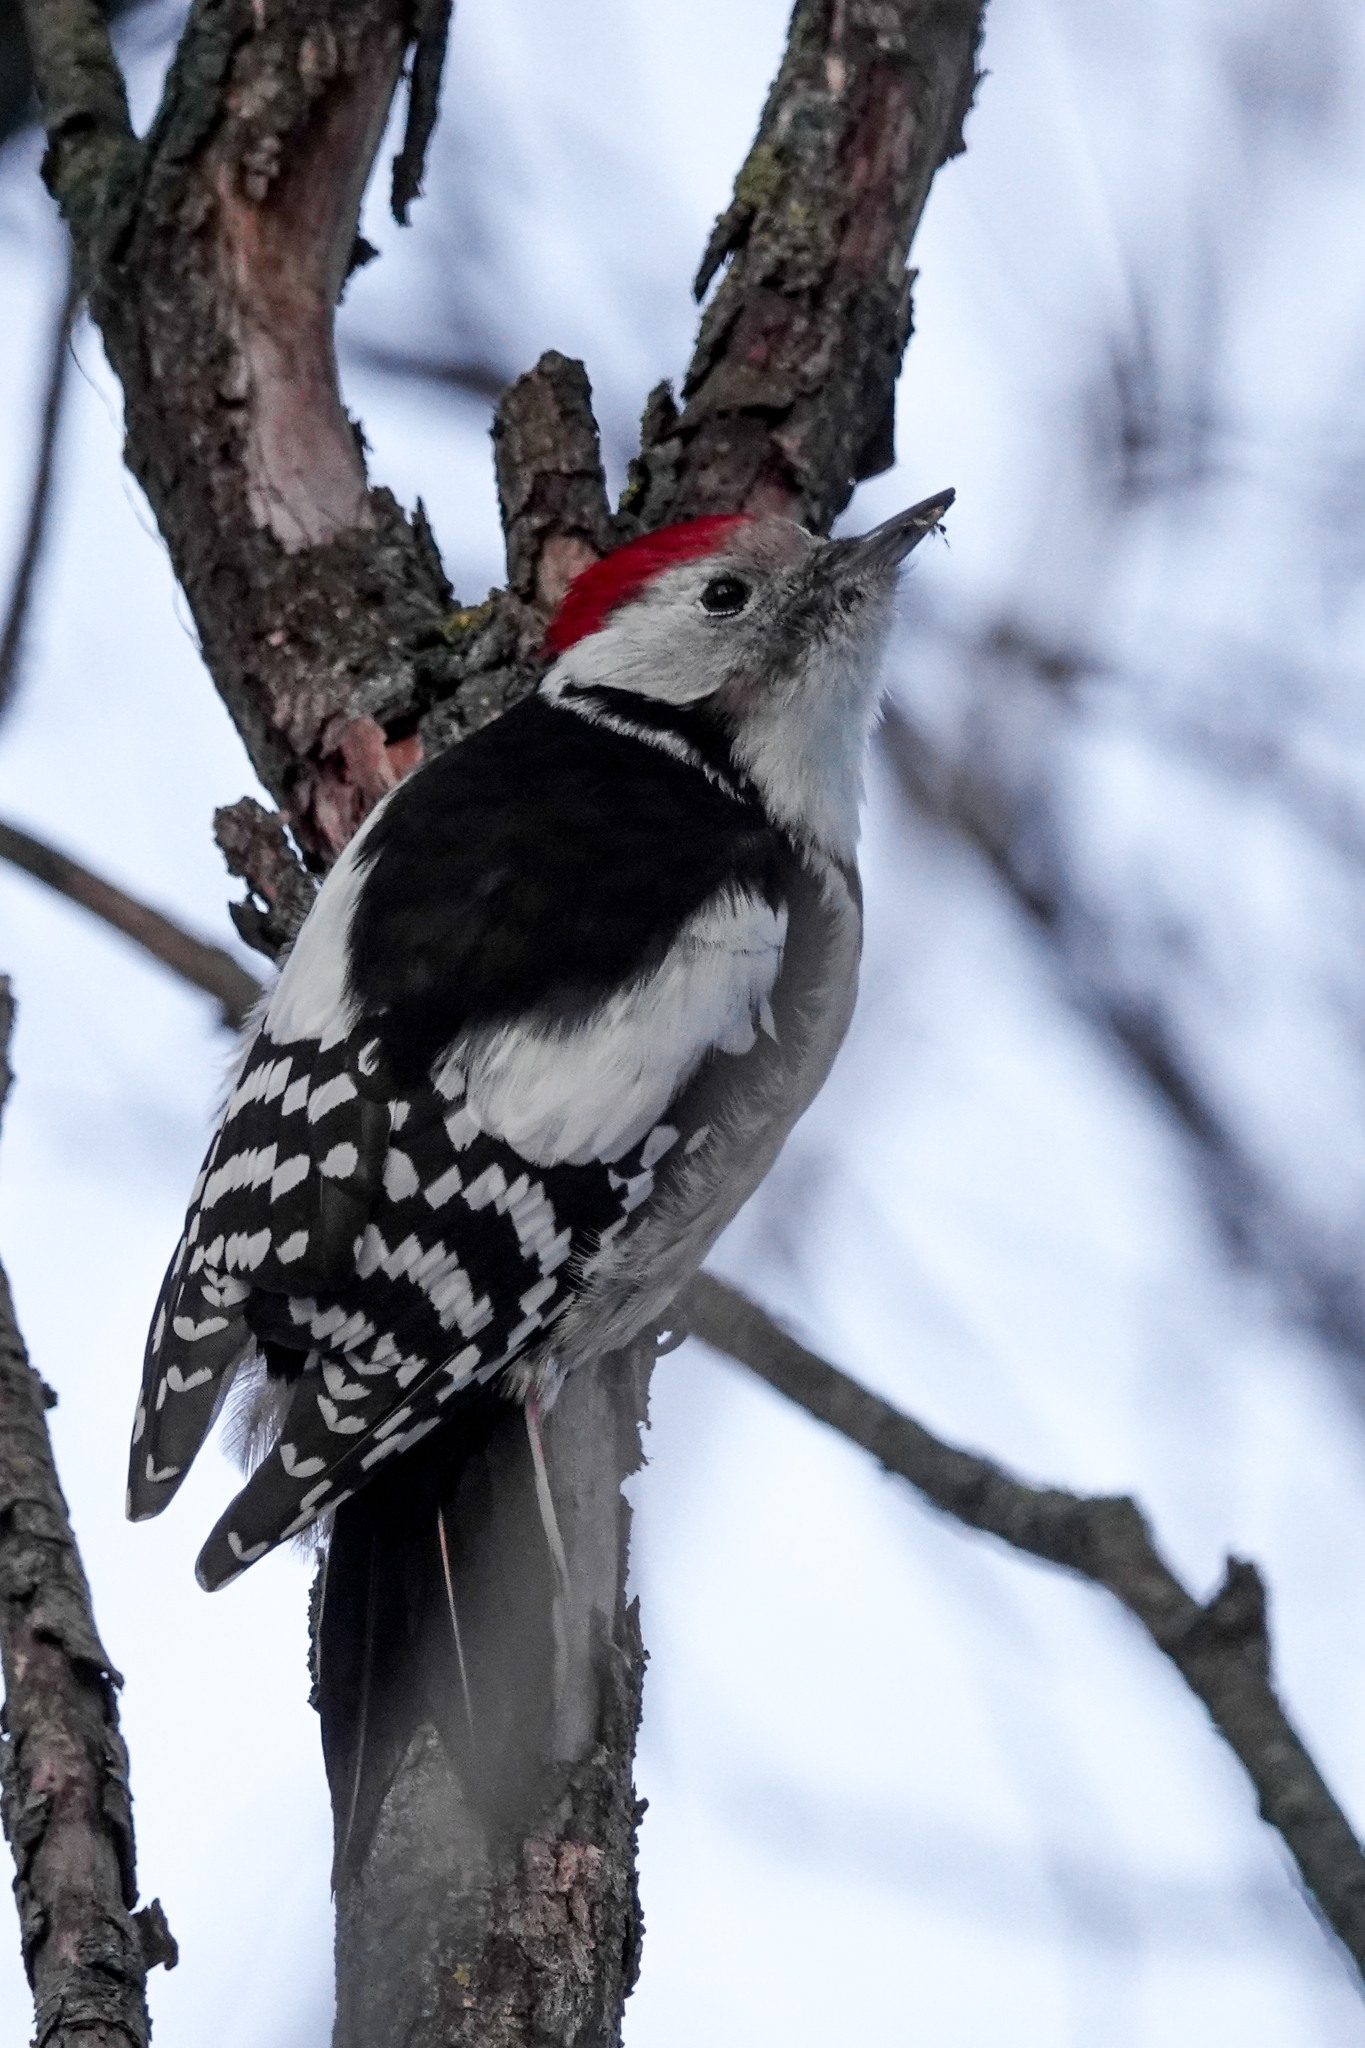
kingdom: Animalia
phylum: Chordata
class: Aves
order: Piciformes
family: Picidae
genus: Dendrocoptes
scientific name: Dendrocoptes medius
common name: Middle spotted woodpecker
